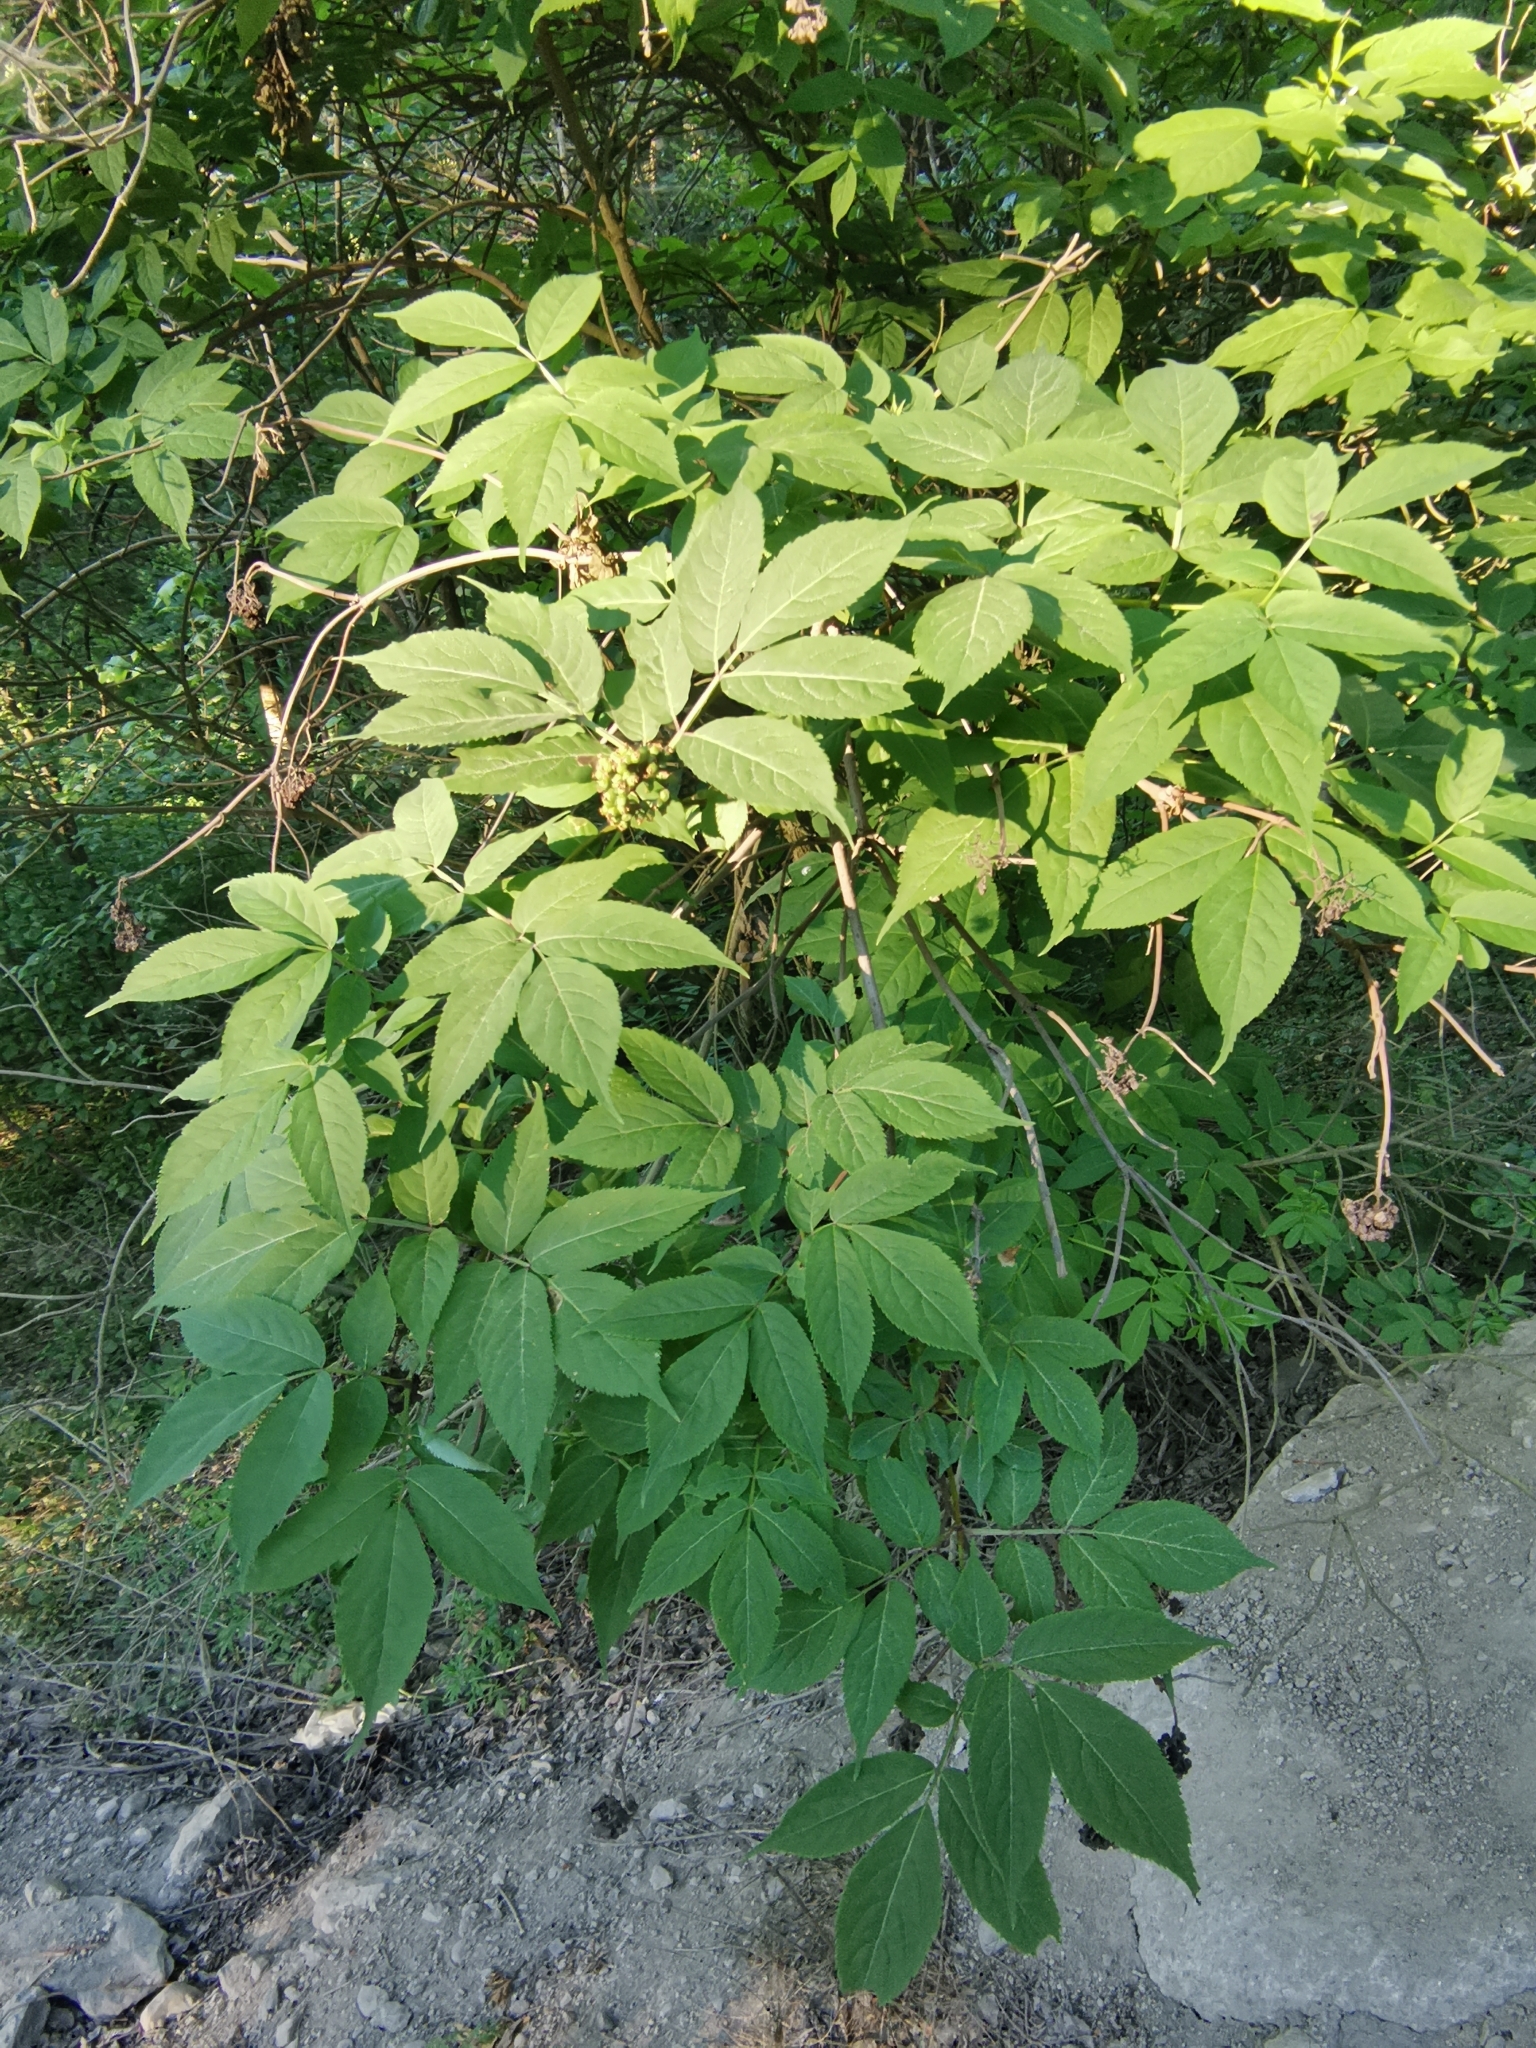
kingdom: Plantae
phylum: Tracheophyta
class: Magnoliopsida
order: Dipsacales
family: Viburnaceae
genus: Sambucus
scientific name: Sambucus racemosa
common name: Red-berried elder
